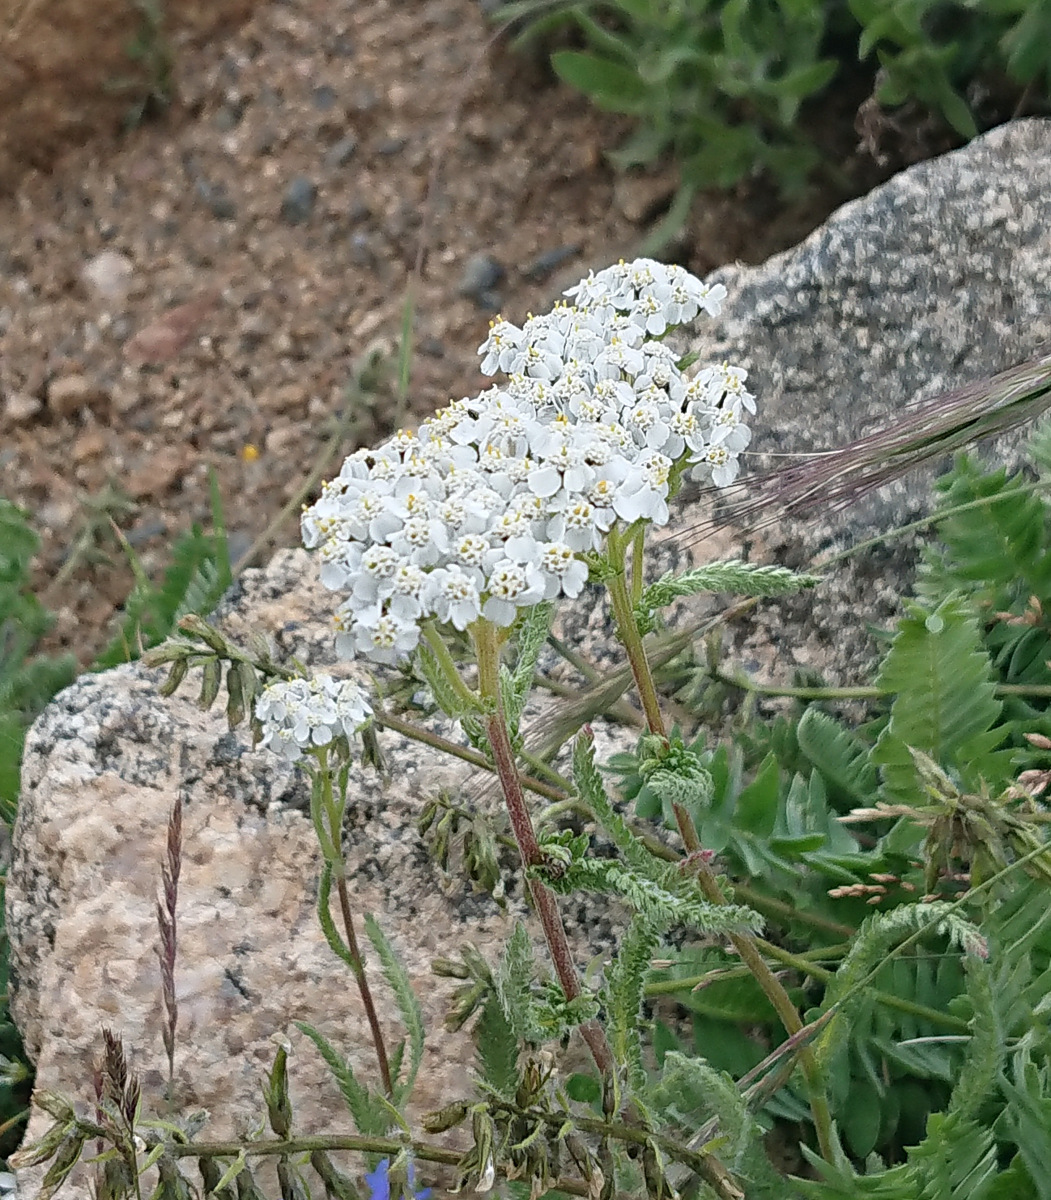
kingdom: Plantae
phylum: Tracheophyta
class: Magnoliopsida
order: Asterales
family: Asteraceae
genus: Achillea
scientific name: Achillea millefolium
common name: Yarrow
